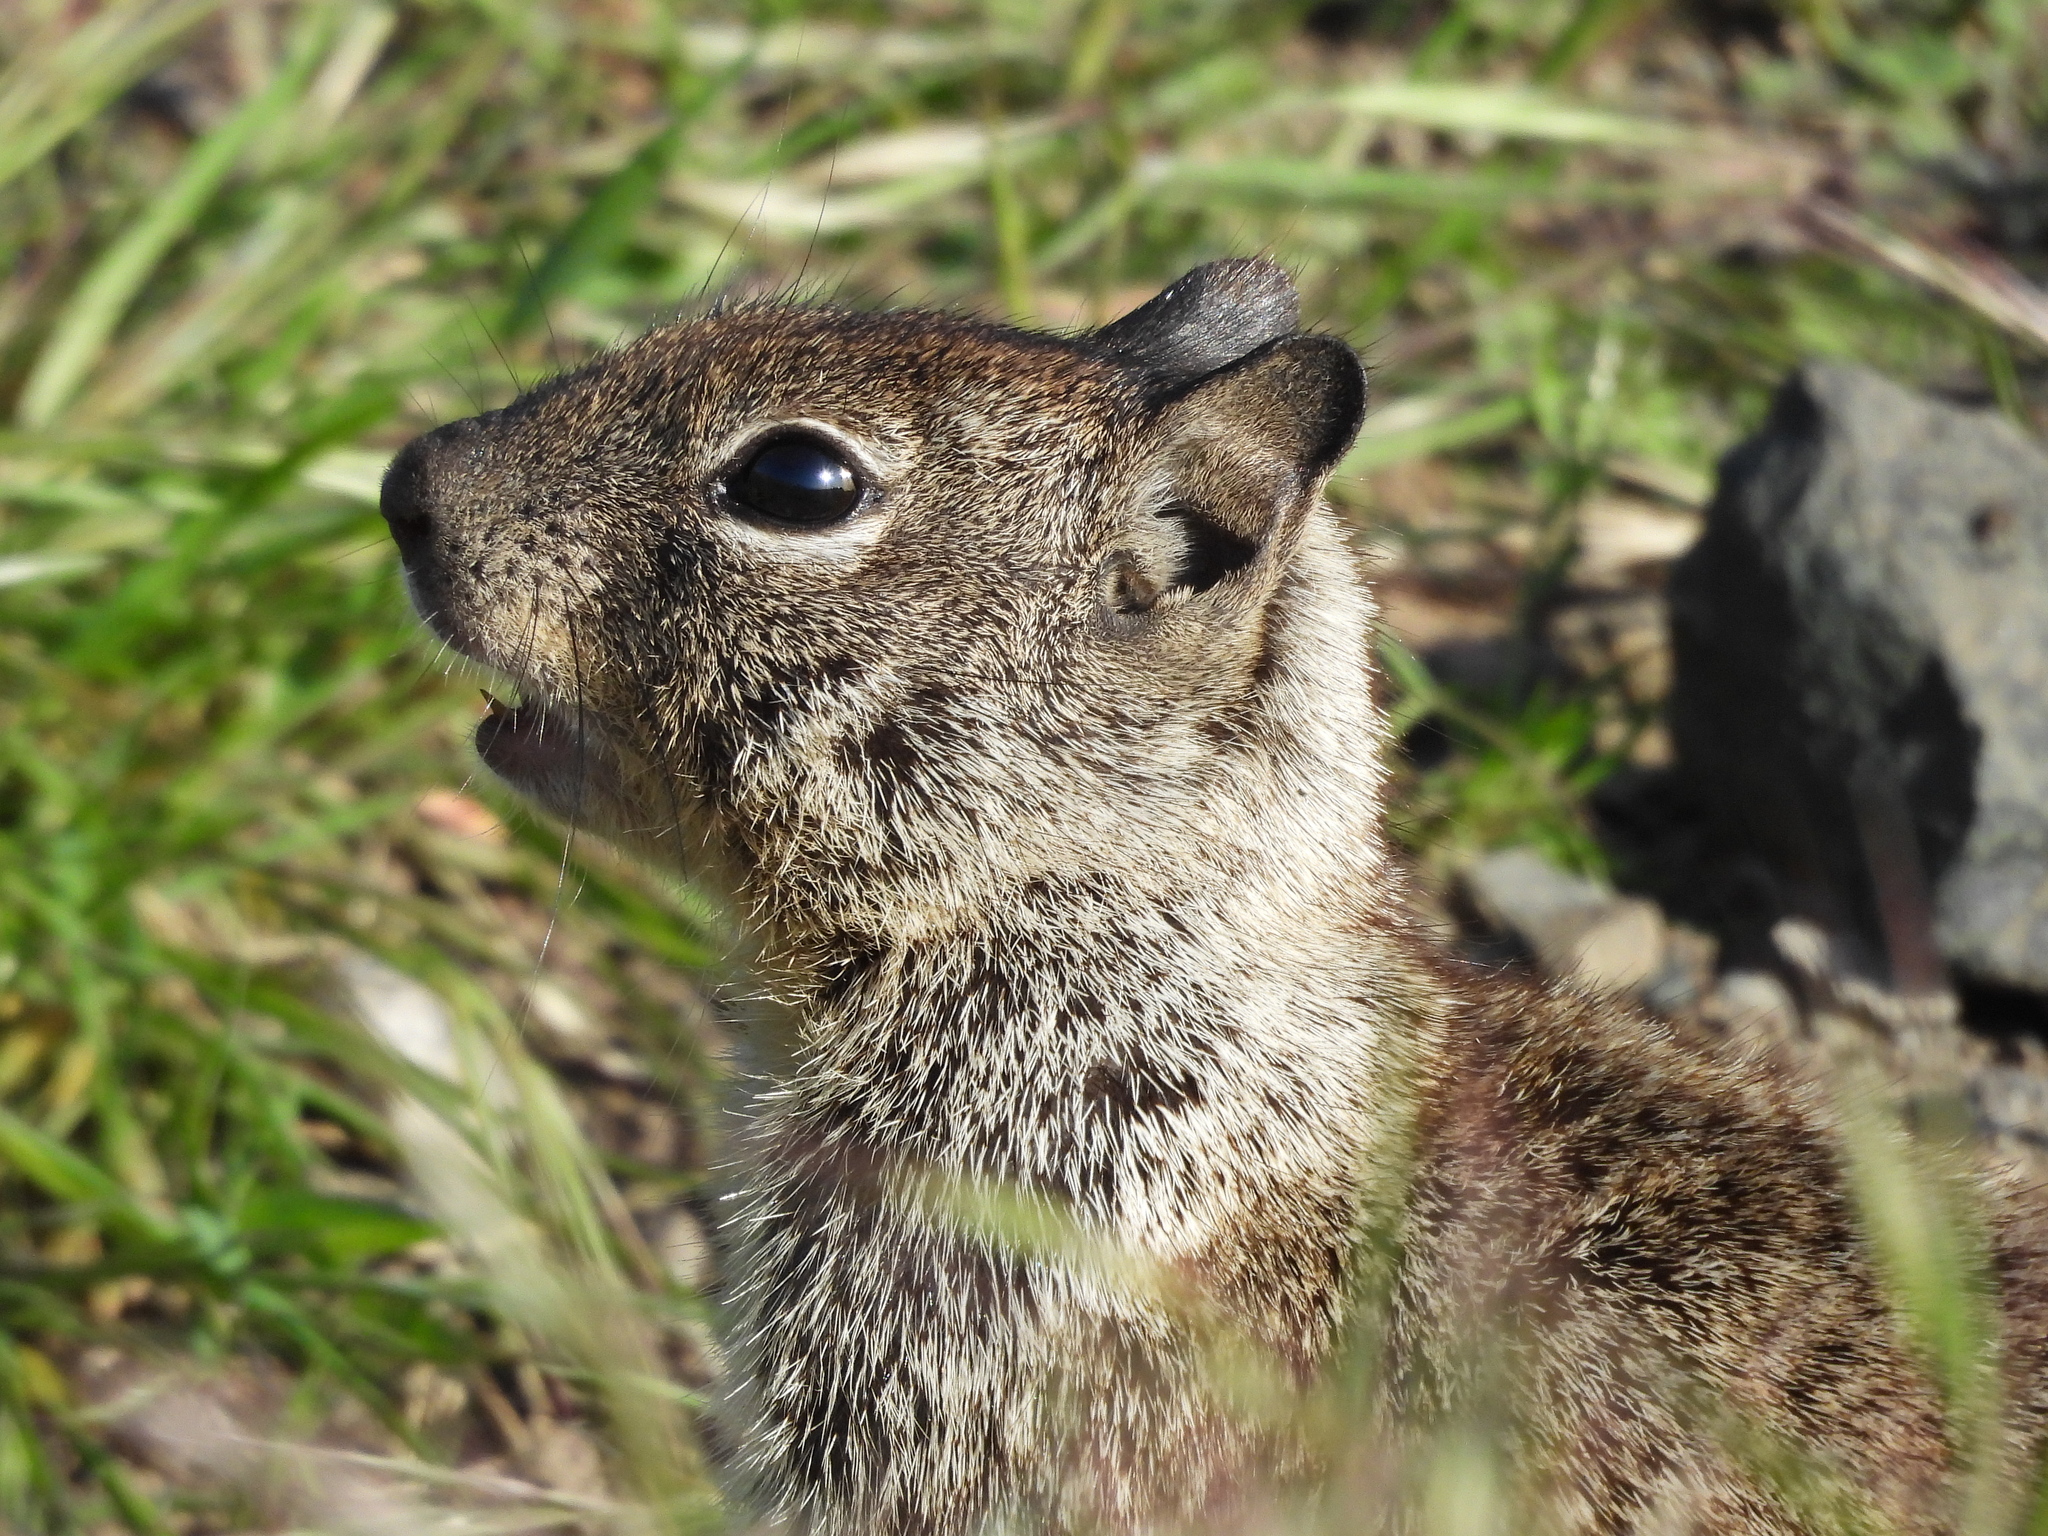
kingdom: Animalia
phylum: Chordata
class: Mammalia
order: Rodentia
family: Sciuridae
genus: Otospermophilus
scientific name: Otospermophilus beecheyi
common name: California ground squirrel
